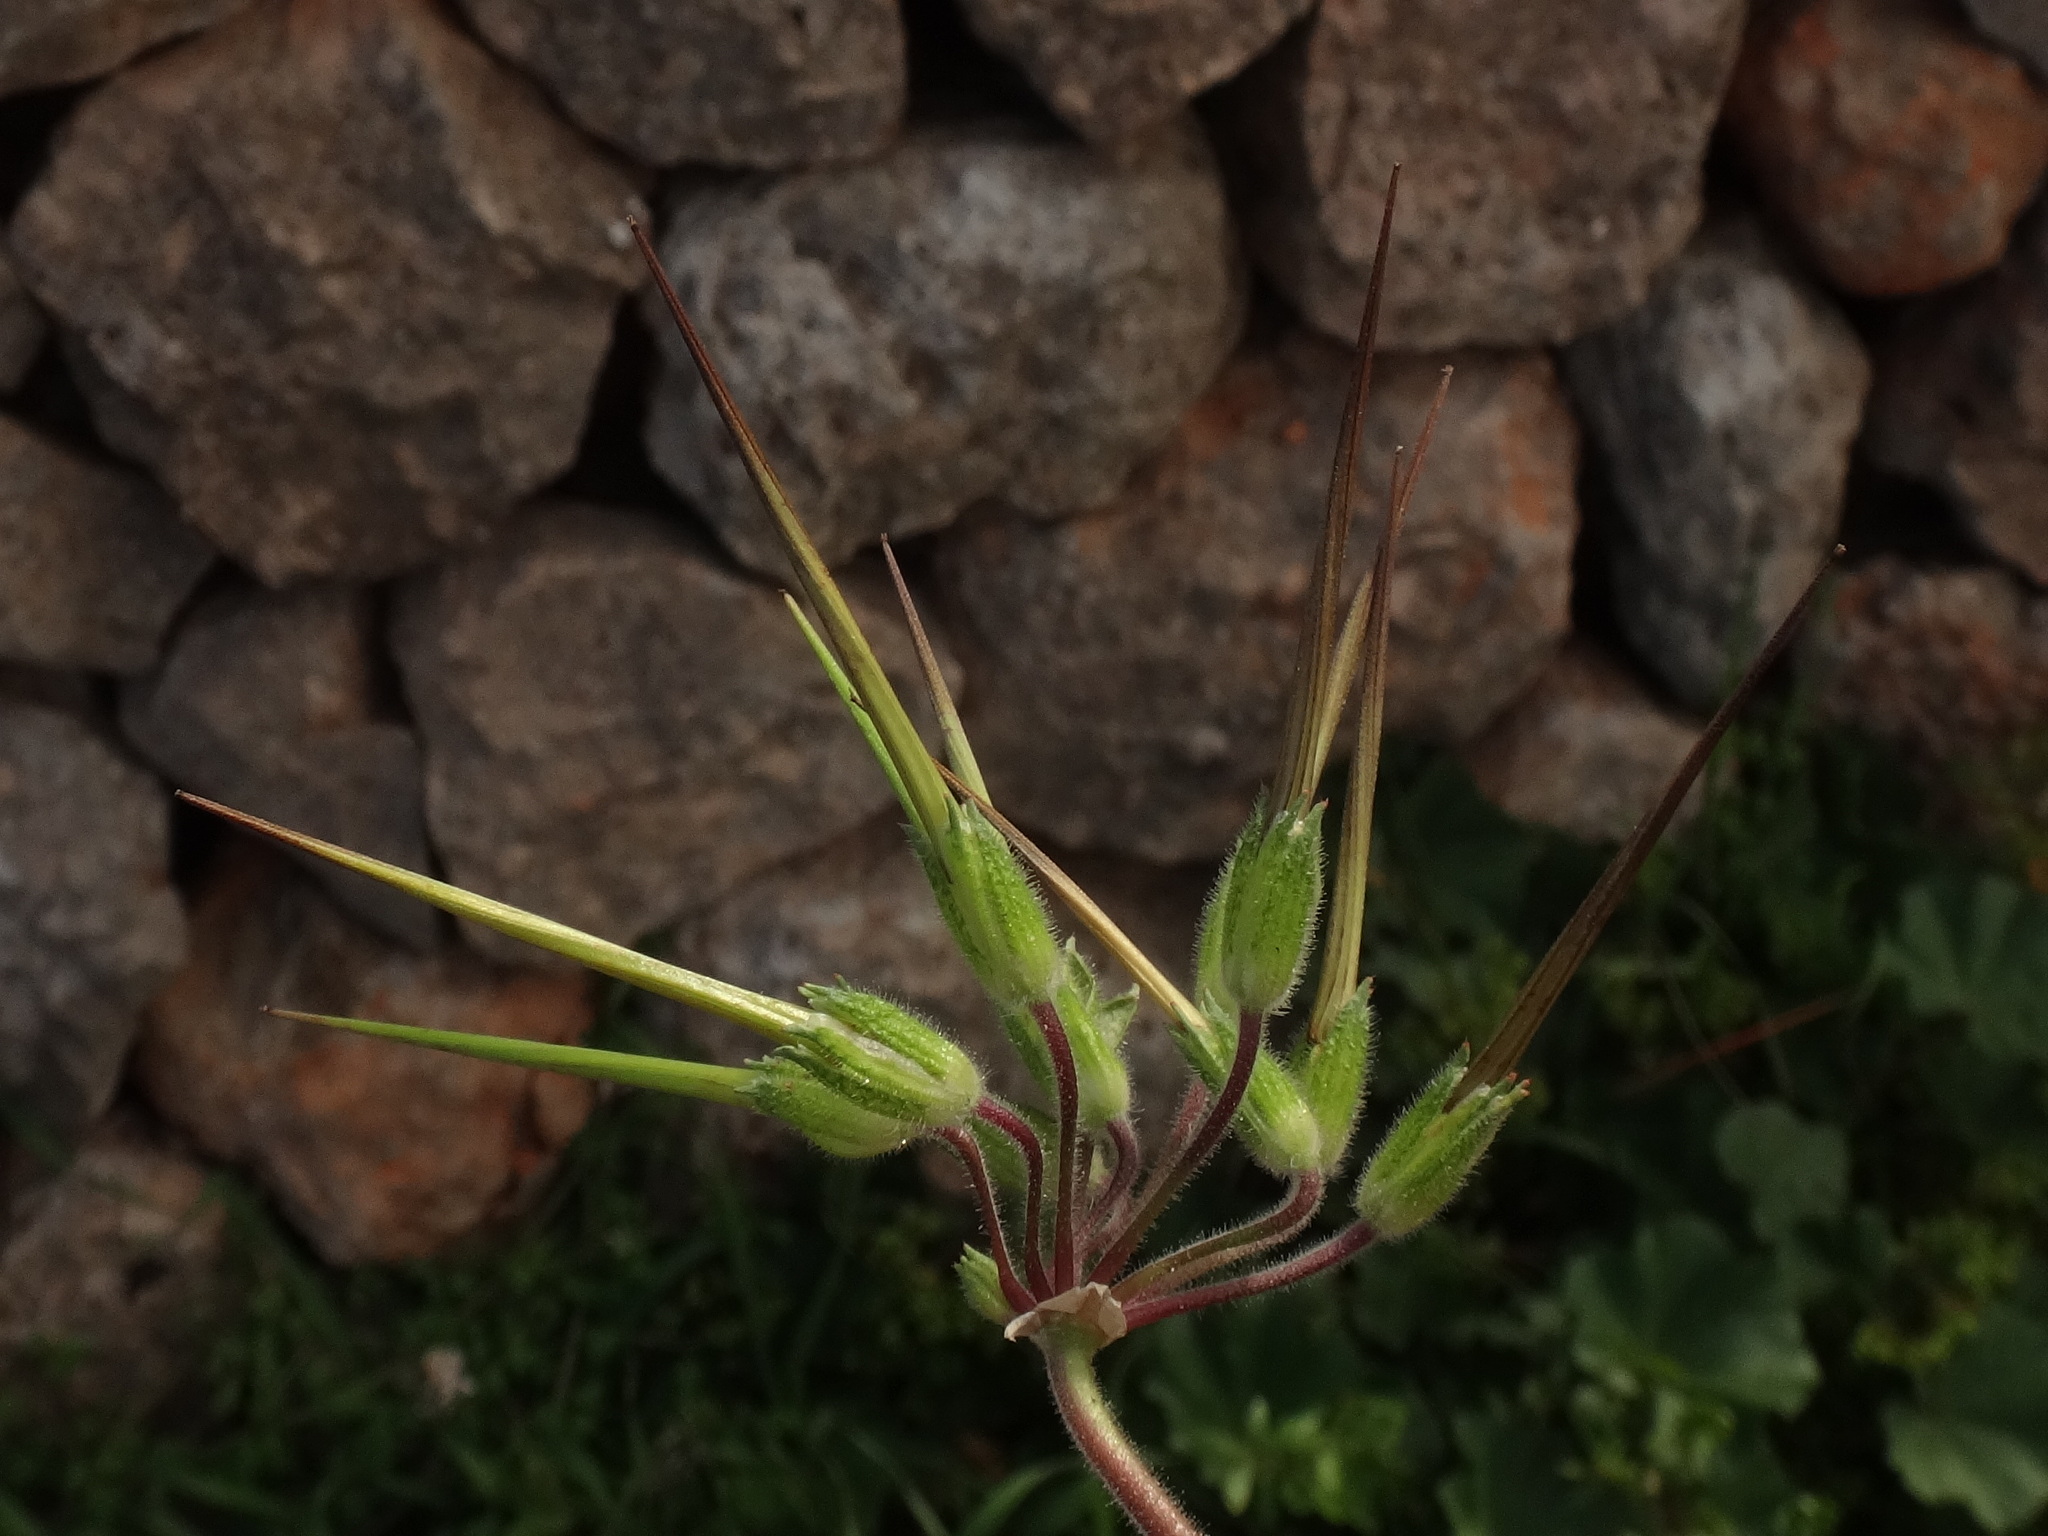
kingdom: Plantae
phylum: Tracheophyta
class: Magnoliopsida
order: Geraniales
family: Geraniaceae
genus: Erodium
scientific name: Erodium moschatum
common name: Musk stork's-bill
